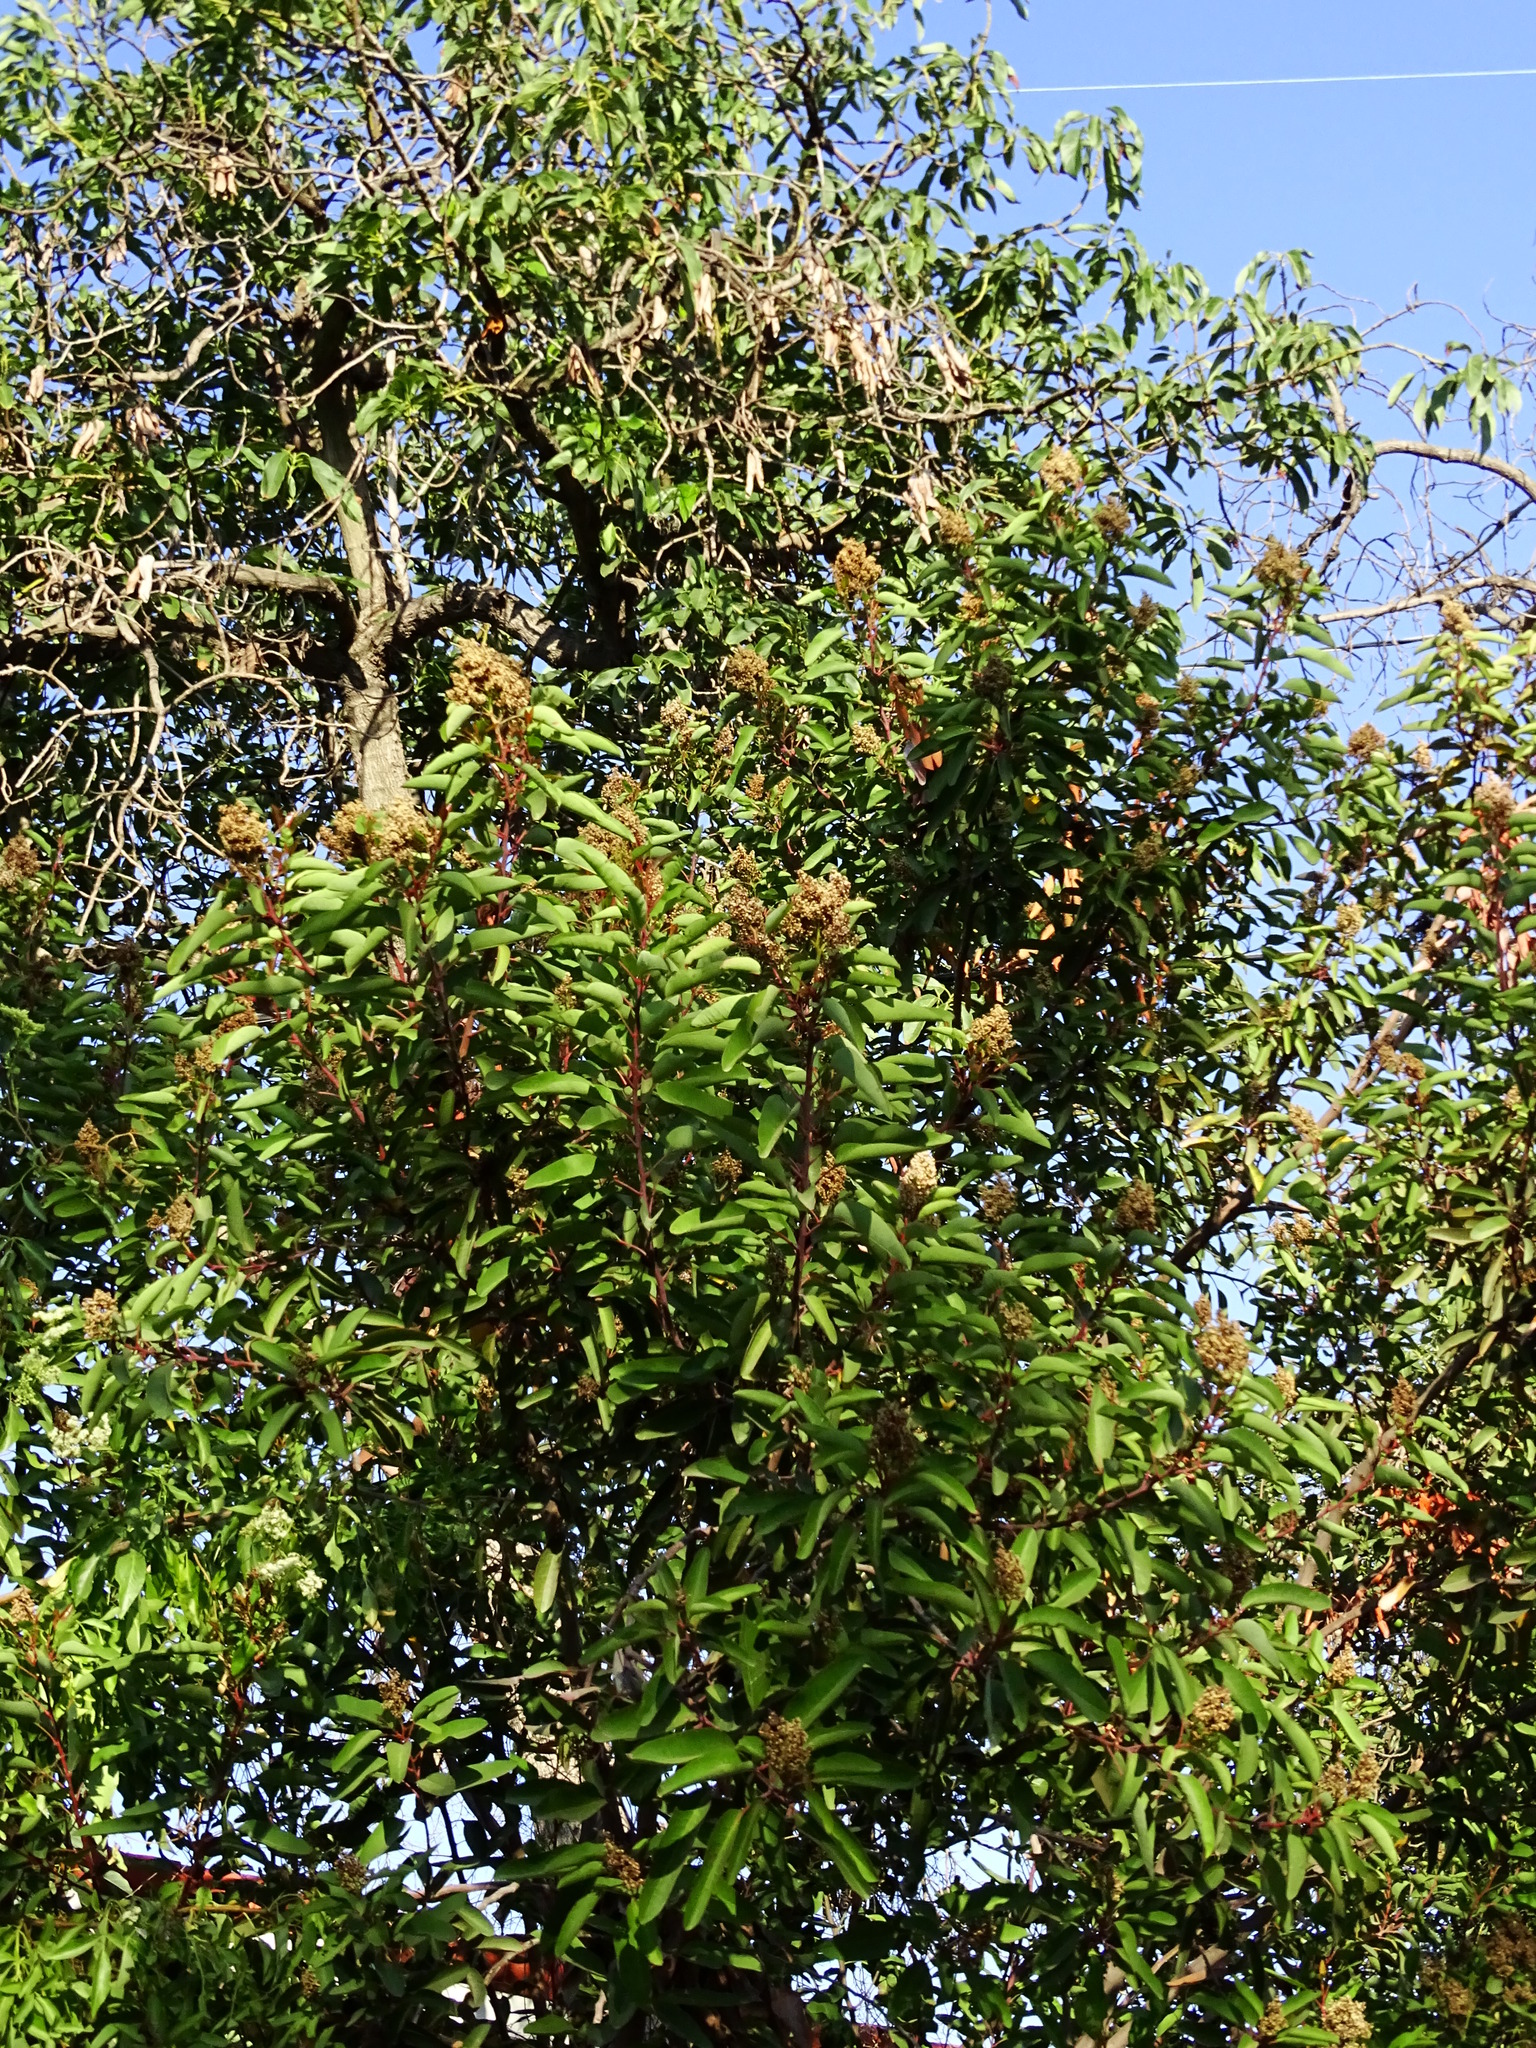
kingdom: Plantae
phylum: Tracheophyta
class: Magnoliopsida
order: Sapindales
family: Anacardiaceae
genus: Malosma
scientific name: Malosma laurina
